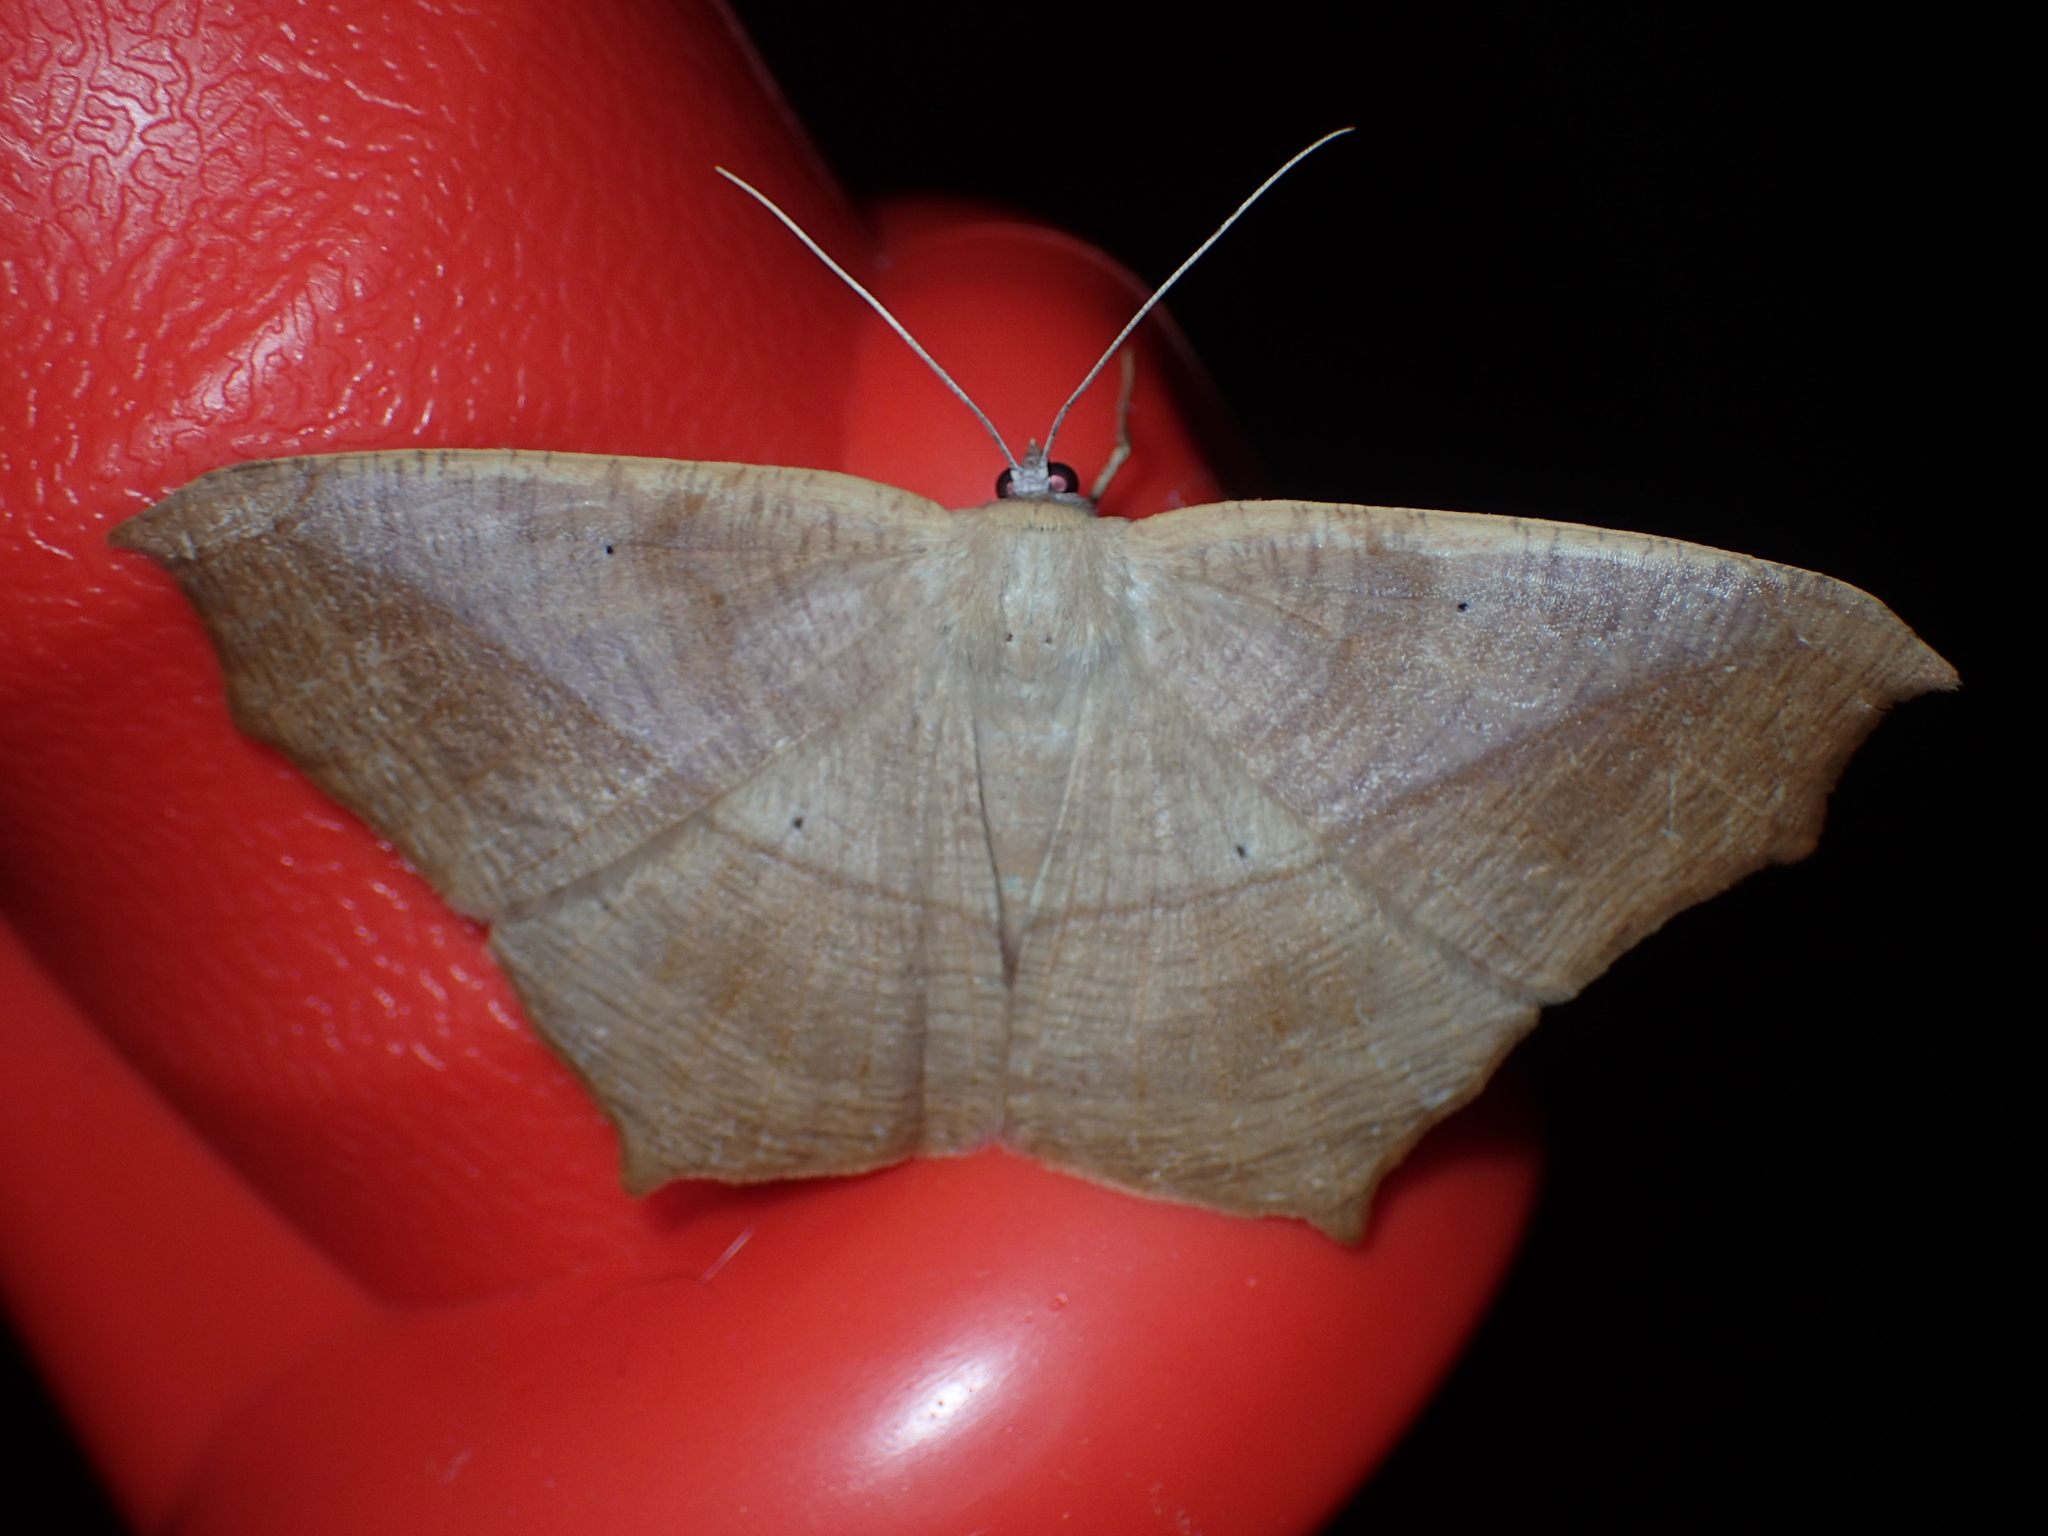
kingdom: Animalia
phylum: Arthropoda
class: Insecta
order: Lepidoptera
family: Geometridae
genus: Prochoerodes
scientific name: Prochoerodes lineola
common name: Large maple spanworm
